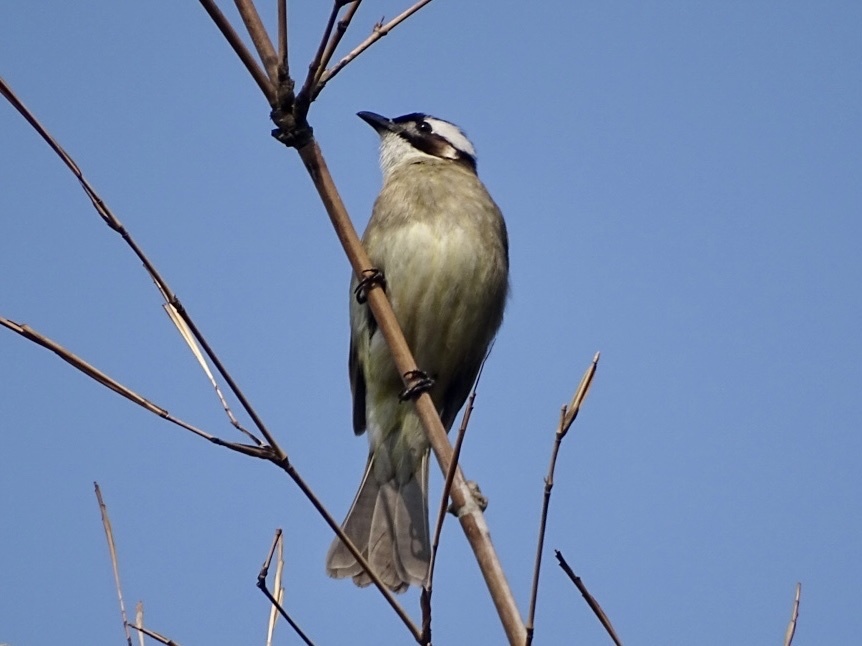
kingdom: Animalia
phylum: Chordata
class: Aves
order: Passeriformes
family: Pycnonotidae
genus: Pycnonotus
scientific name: Pycnonotus sinensis
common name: Light-vented bulbul
